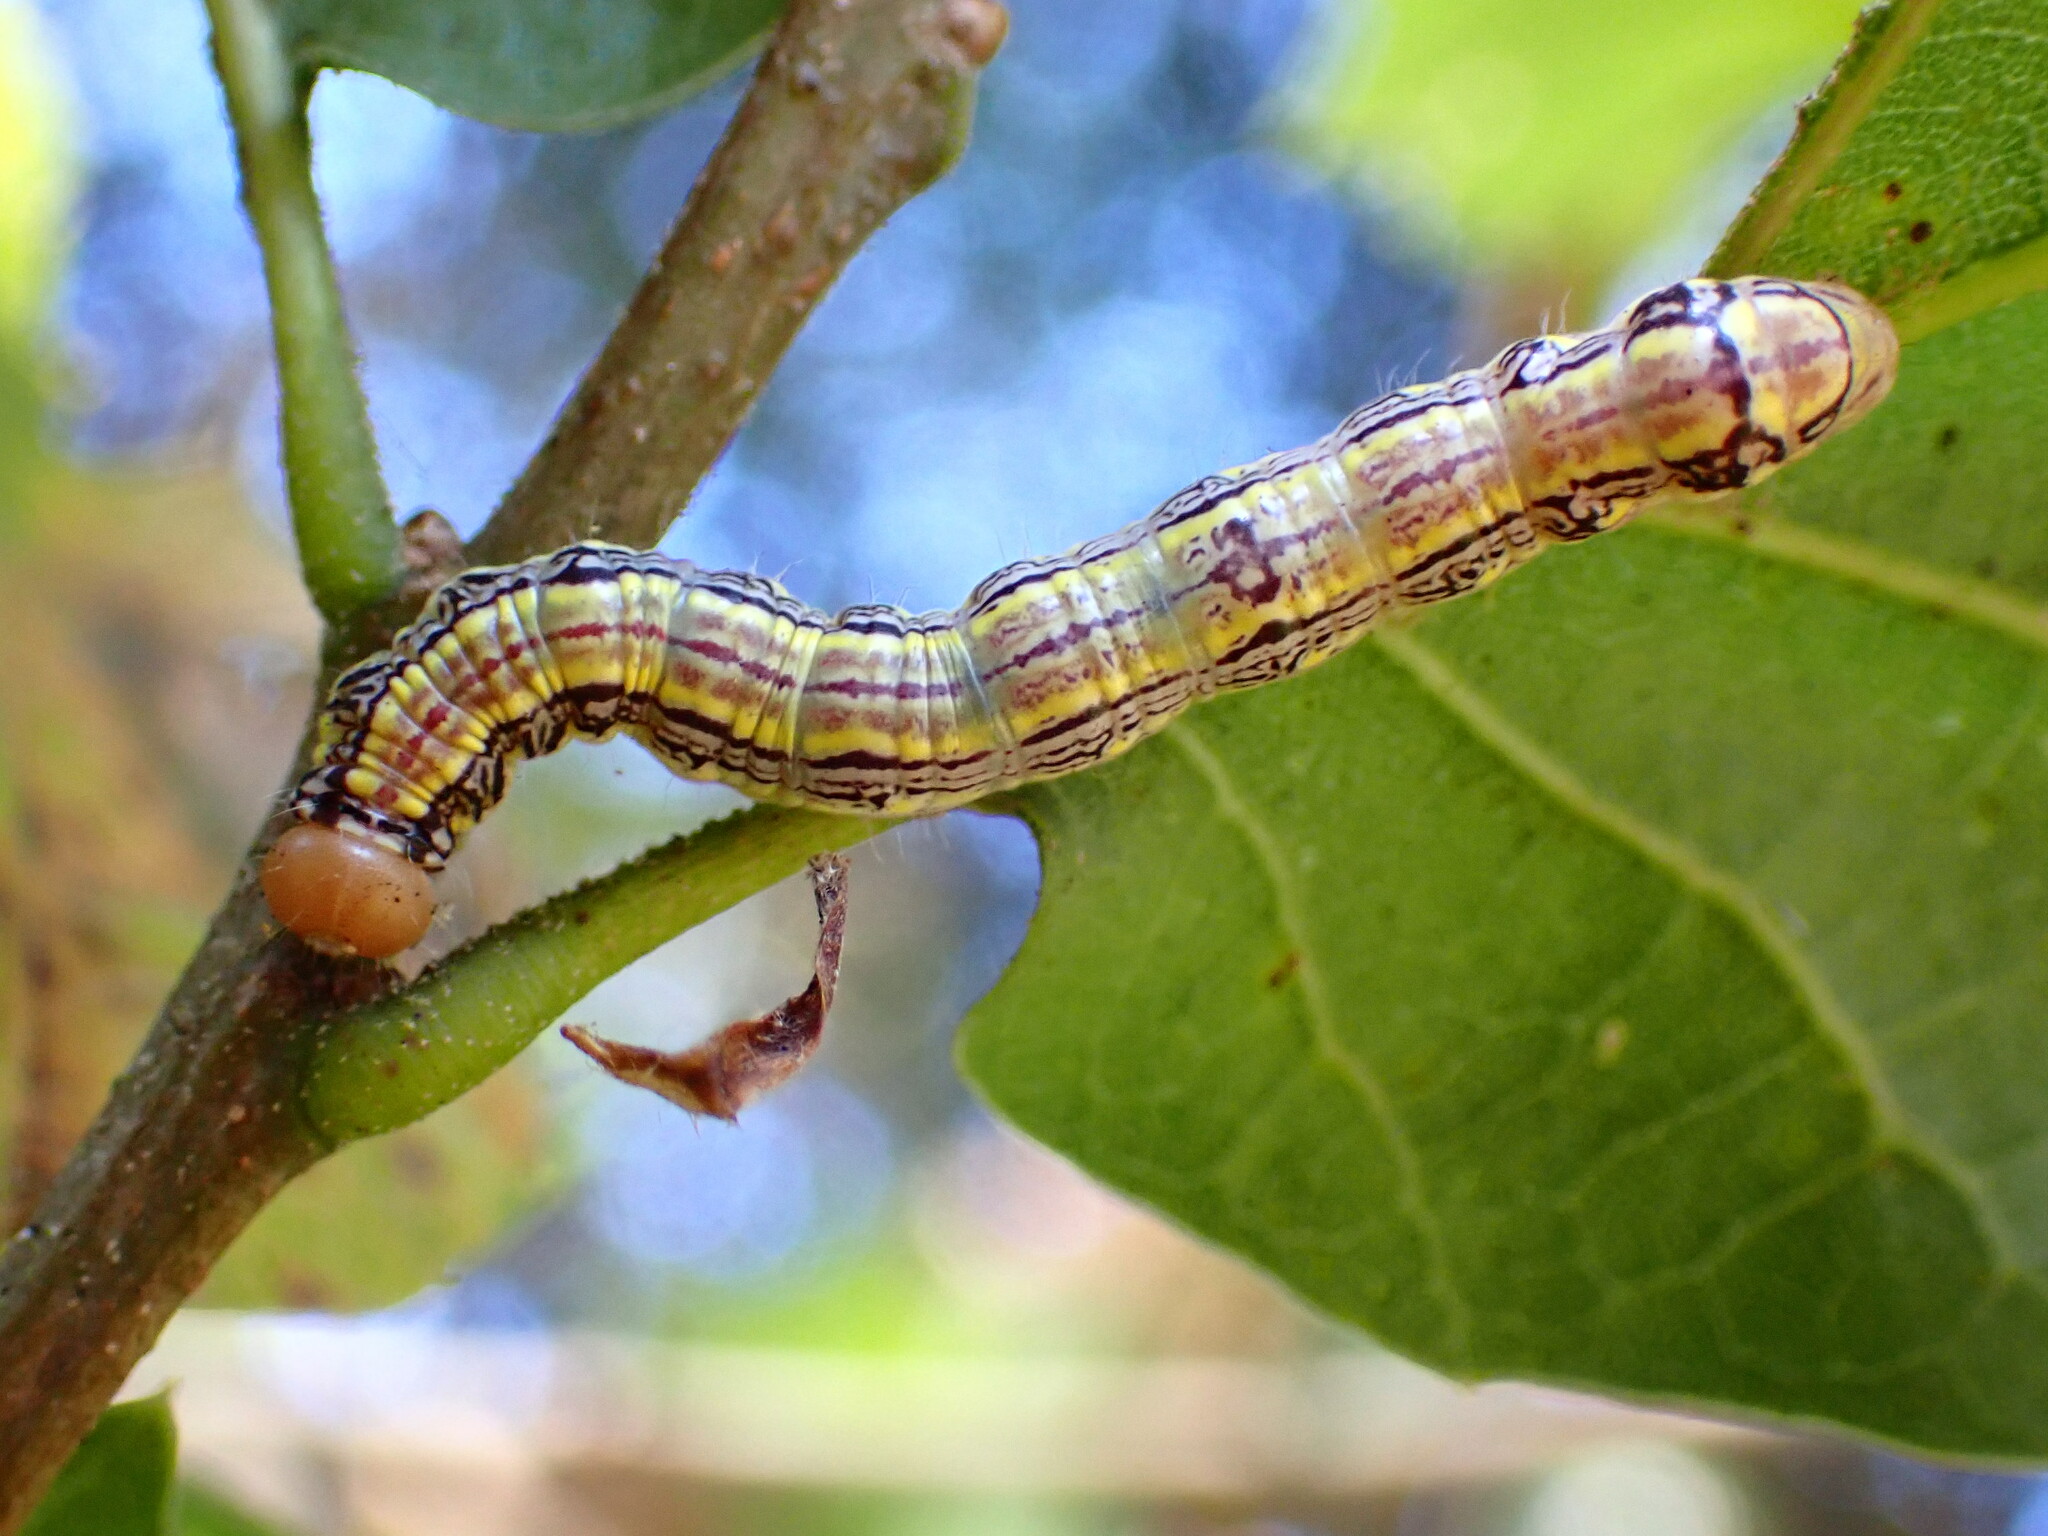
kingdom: Animalia
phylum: Arthropoda
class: Insecta
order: Lepidoptera
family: Notodontidae
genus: Phryganidia
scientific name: Phryganidia californica
